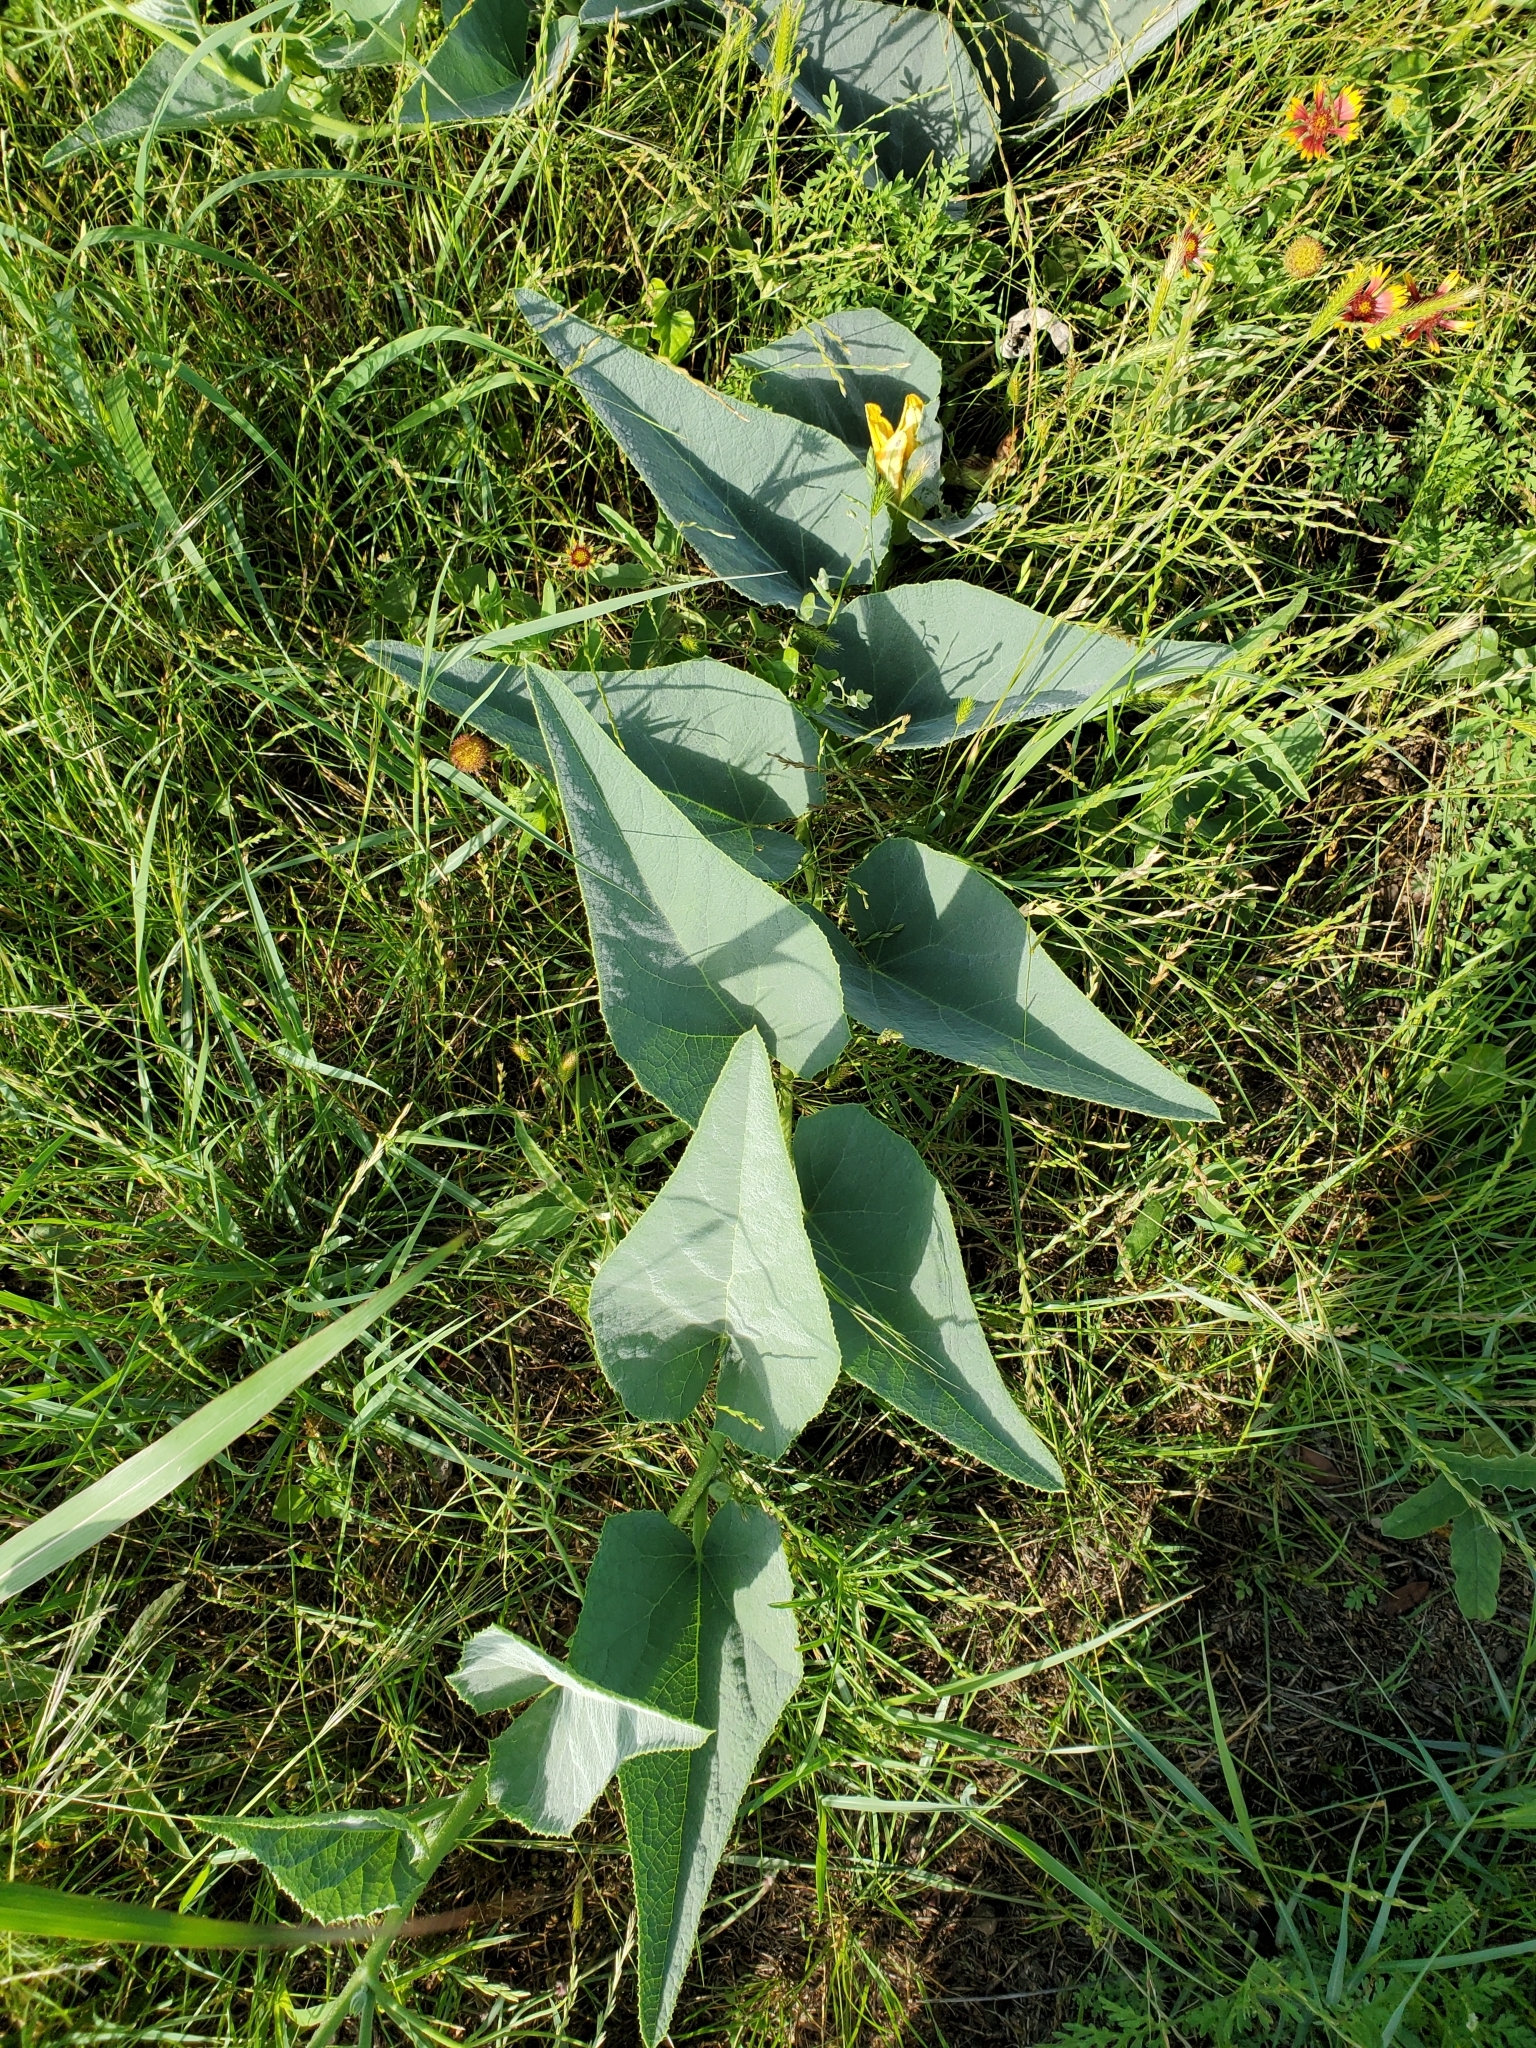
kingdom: Plantae
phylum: Tracheophyta
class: Magnoliopsida
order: Cucurbitales
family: Cucurbitaceae
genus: Cucurbita
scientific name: Cucurbita foetidissima
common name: Buffalo gourd
